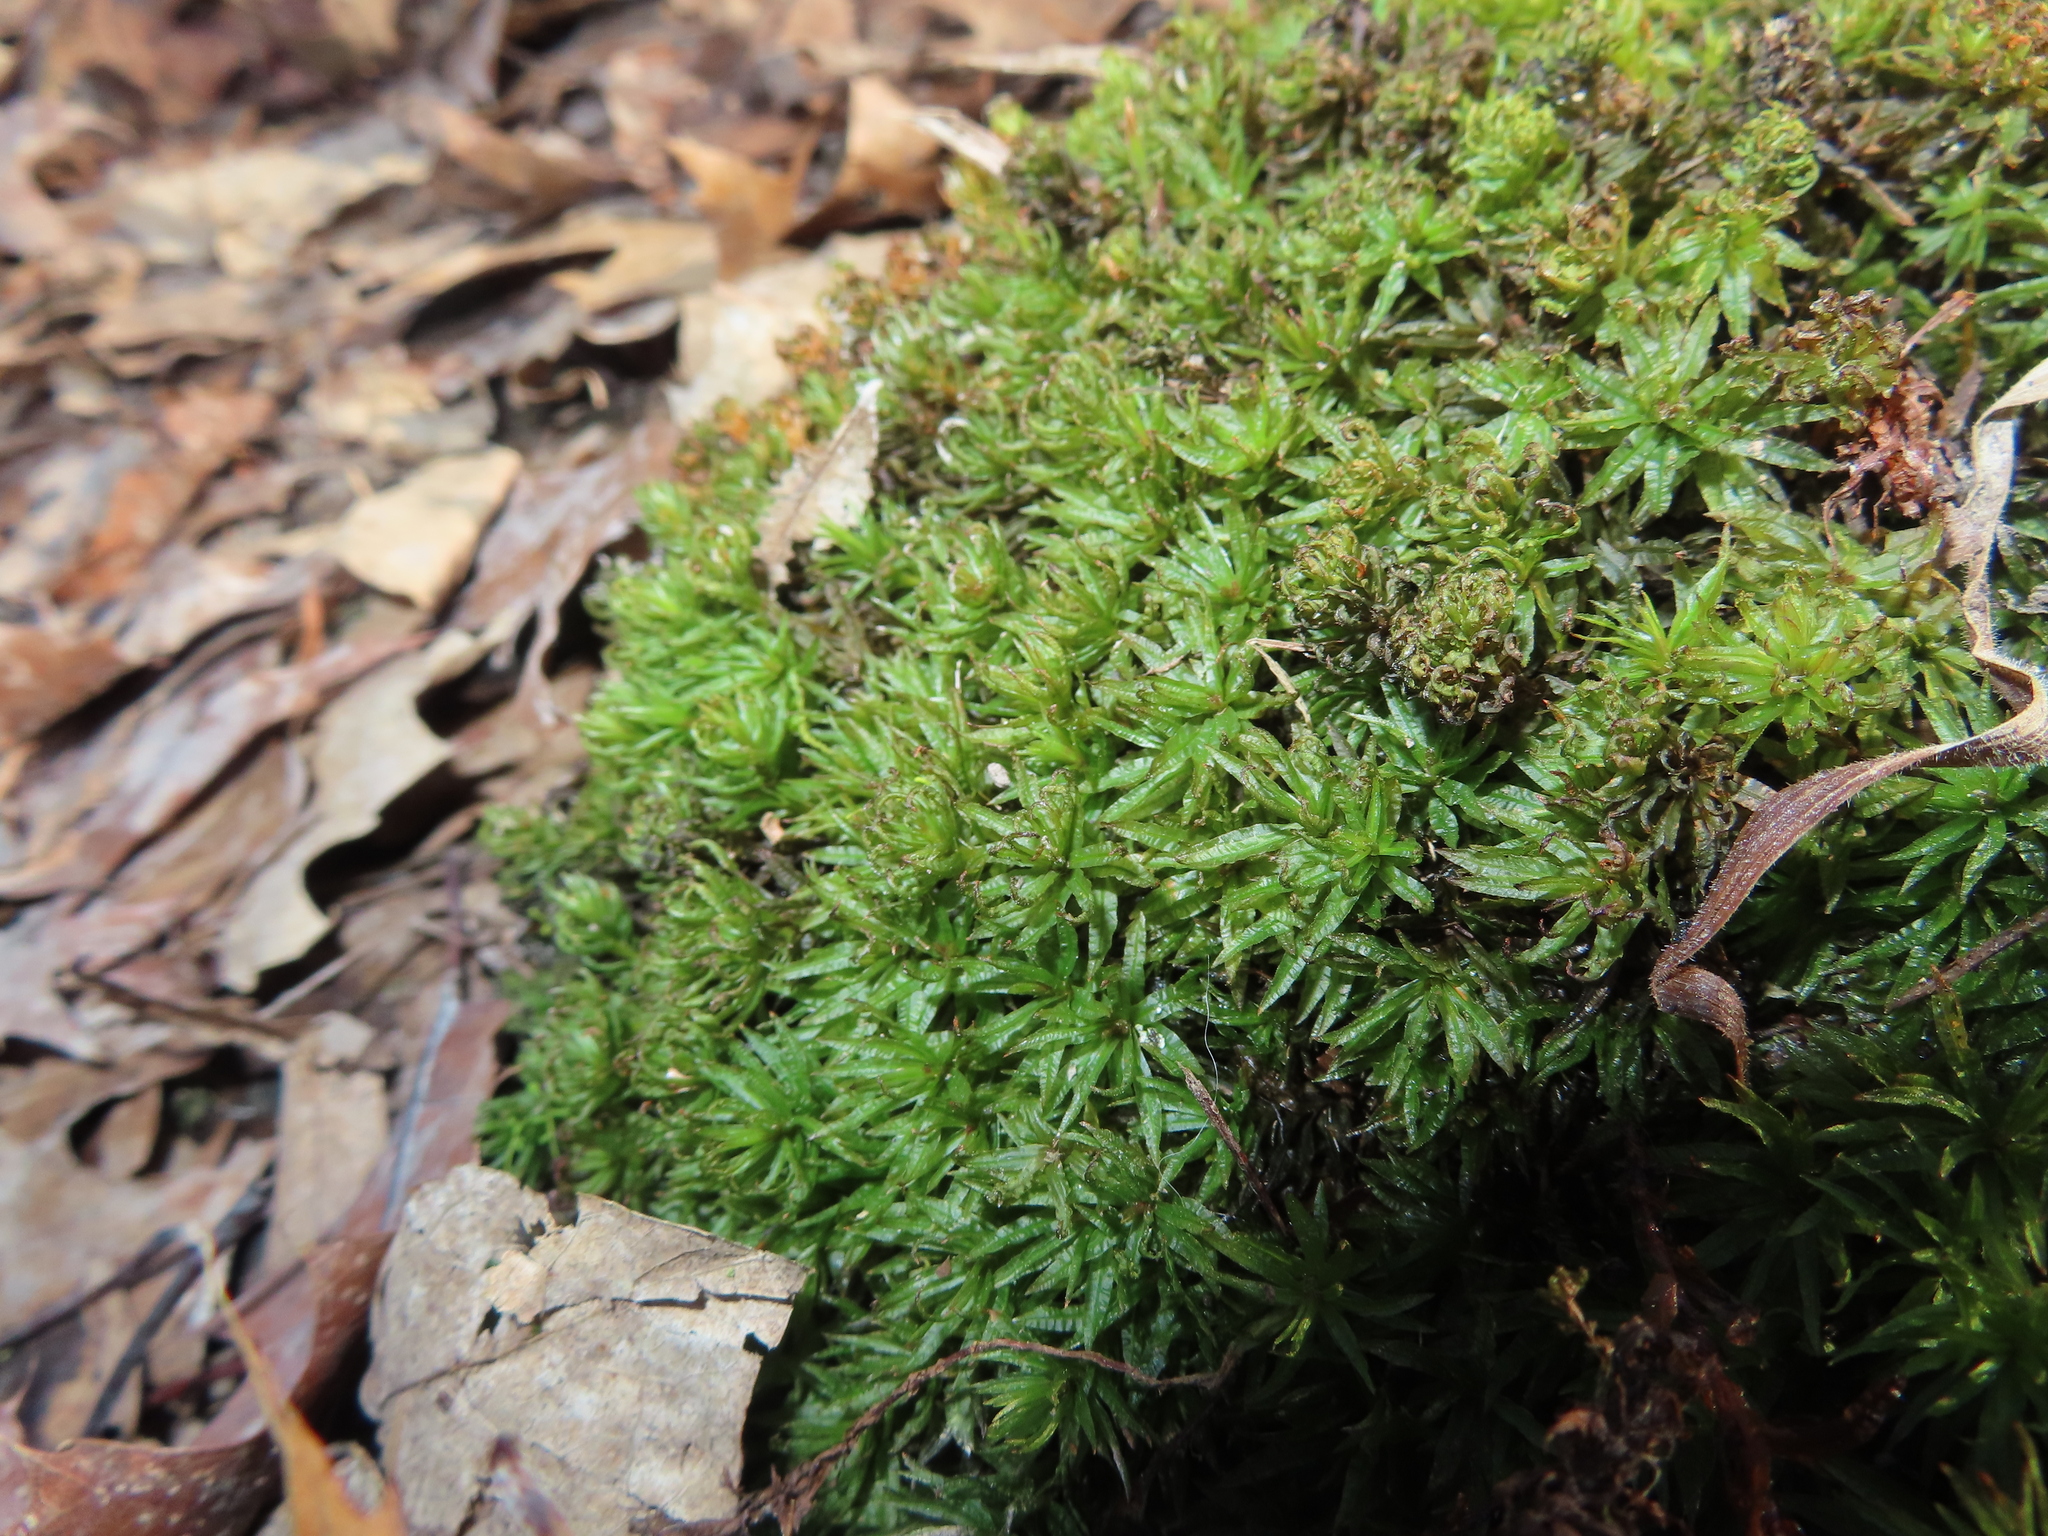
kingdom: Plantae
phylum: Bryophyta
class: Polytrichopsida
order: Polytrichales
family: Polytrichaceae
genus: Atrichum
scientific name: Atrichum
